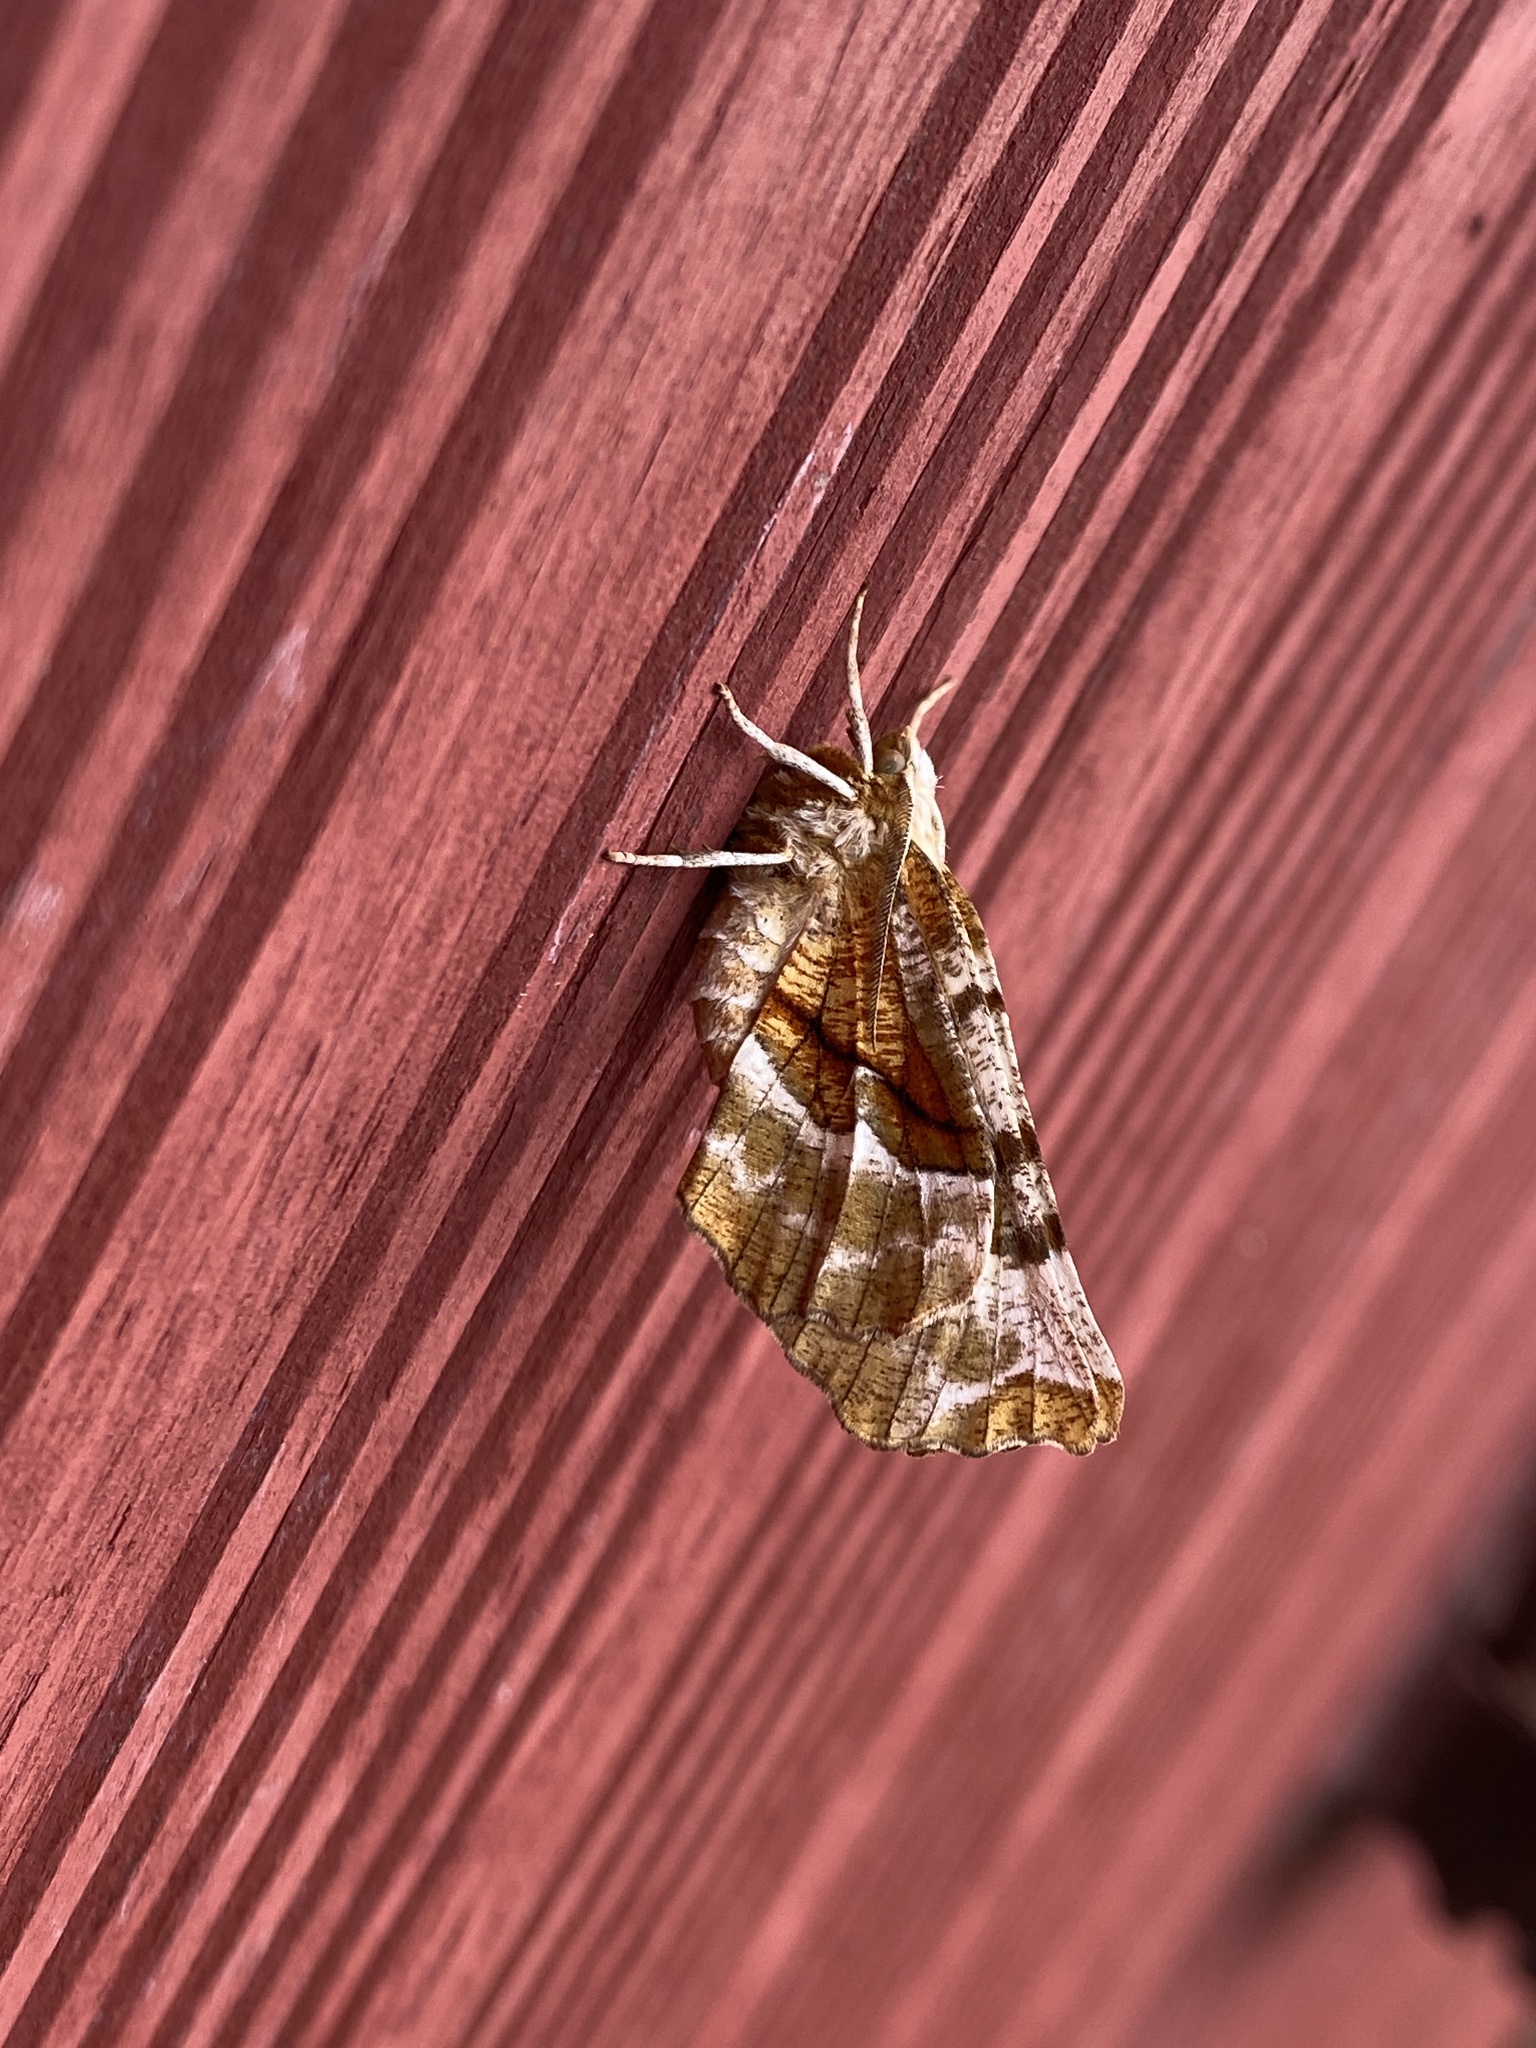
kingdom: Animalia
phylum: Arthropoda
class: Insecta
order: Lepidoptera
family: Geometridae
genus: Selenia
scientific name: Selenia kentaria
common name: Kent's geometer
